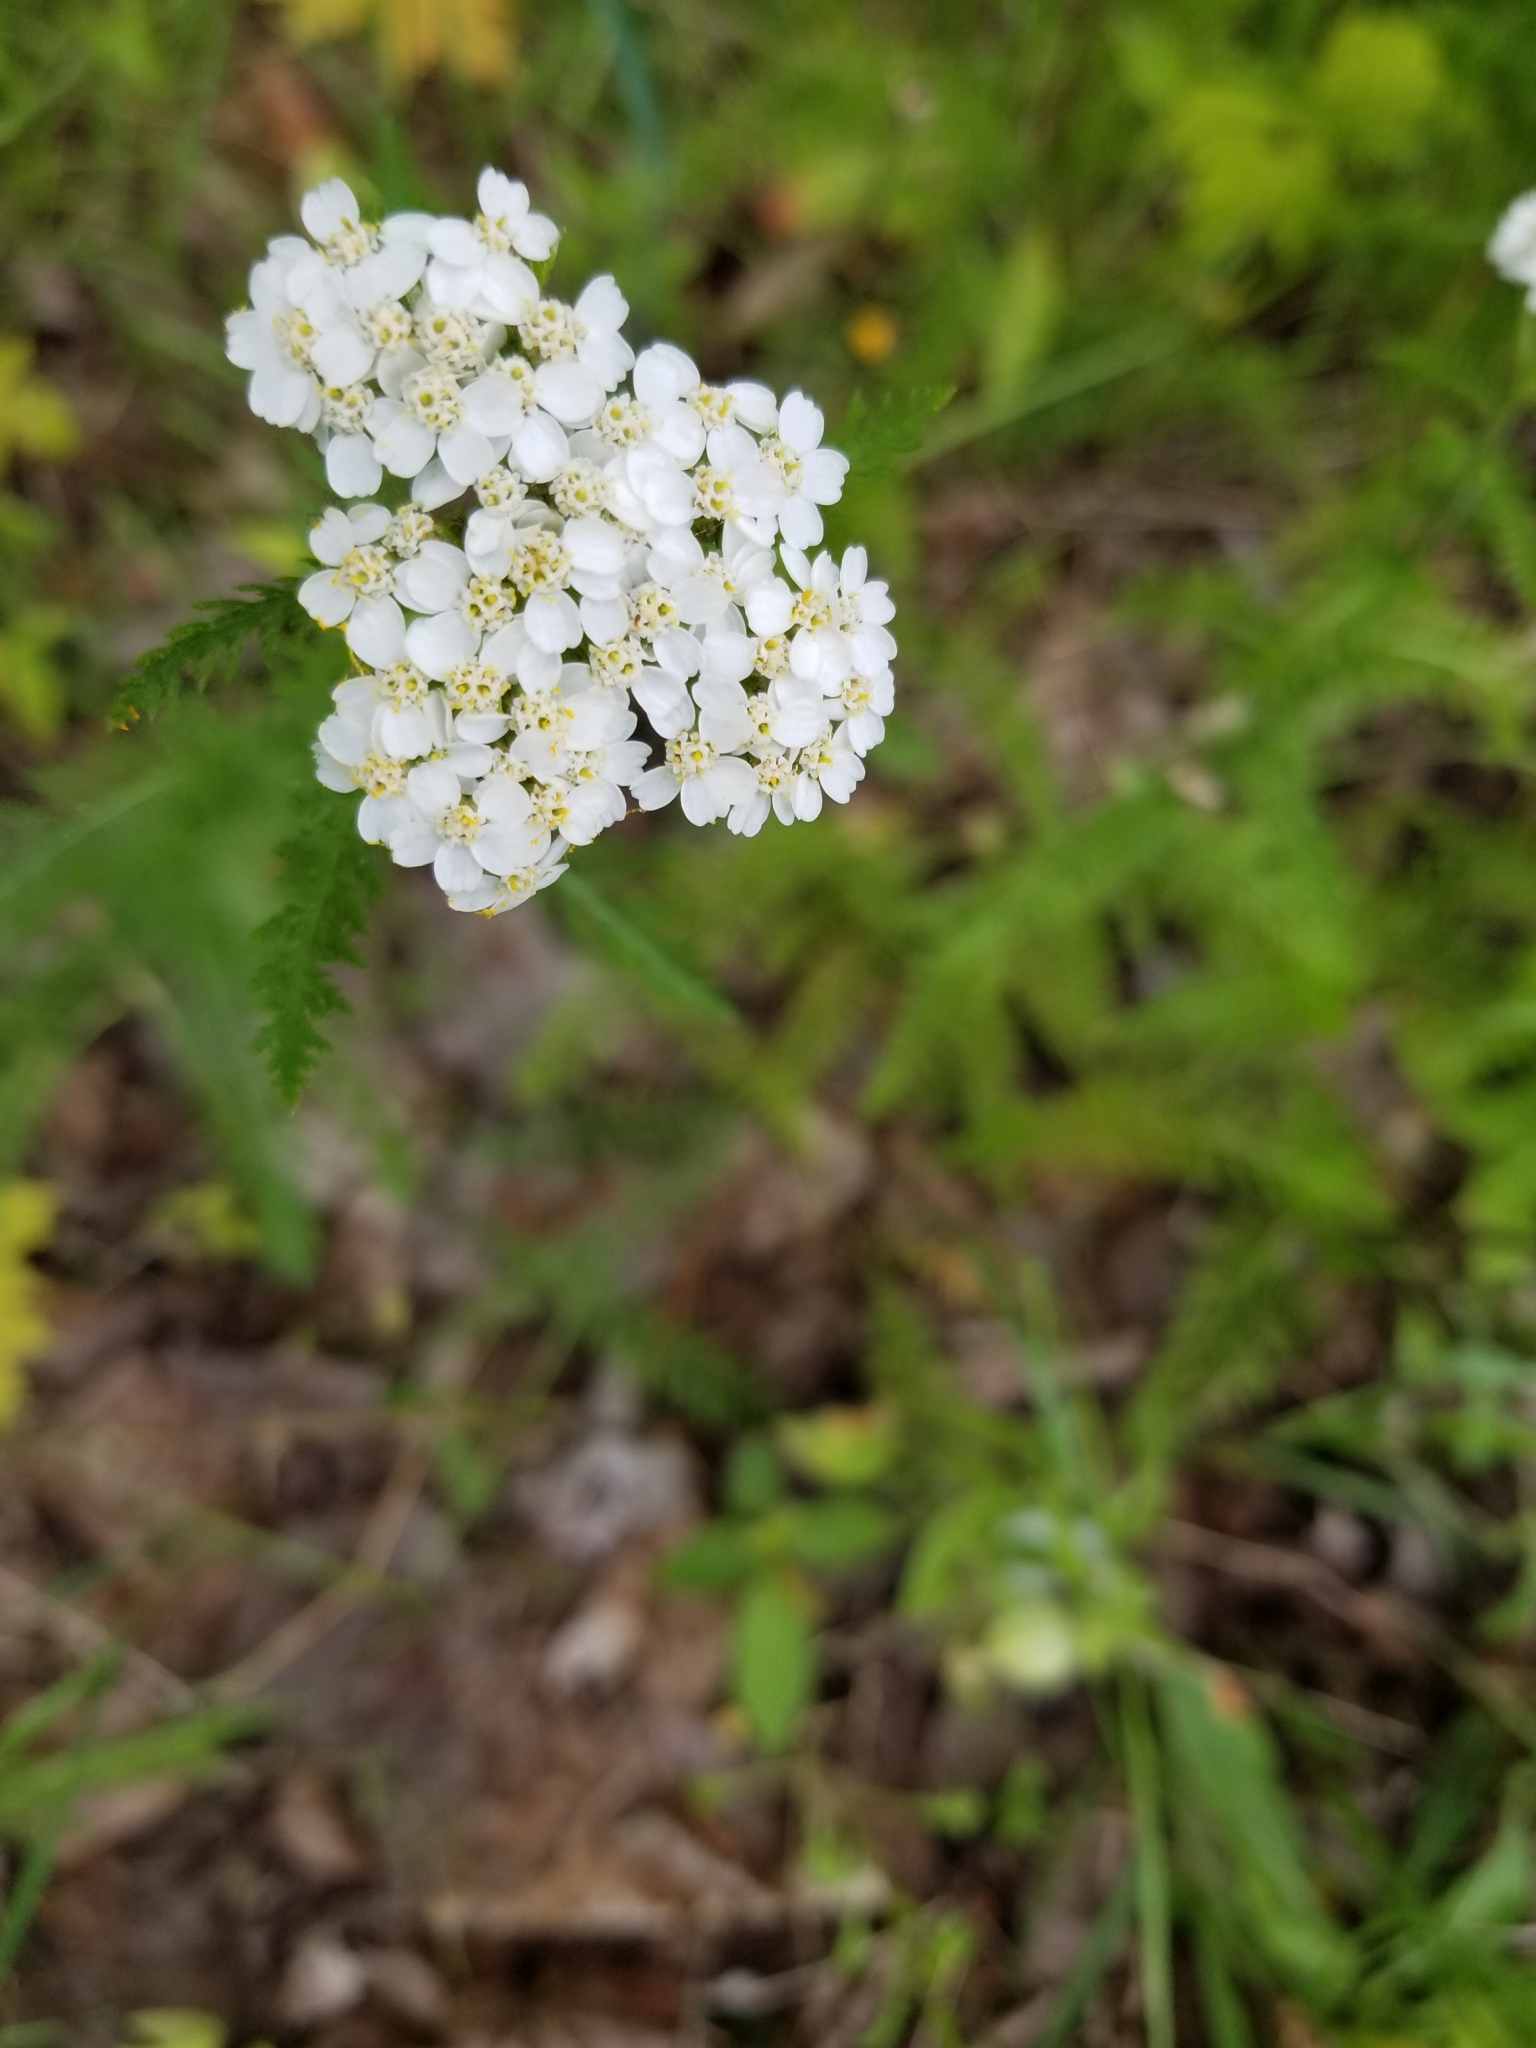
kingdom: Plantae
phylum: Tracheophyta
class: Magnoliopsida
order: Asterales
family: Asteraceae
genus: Achillea
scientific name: Achillea millefolium
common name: Yarrow
